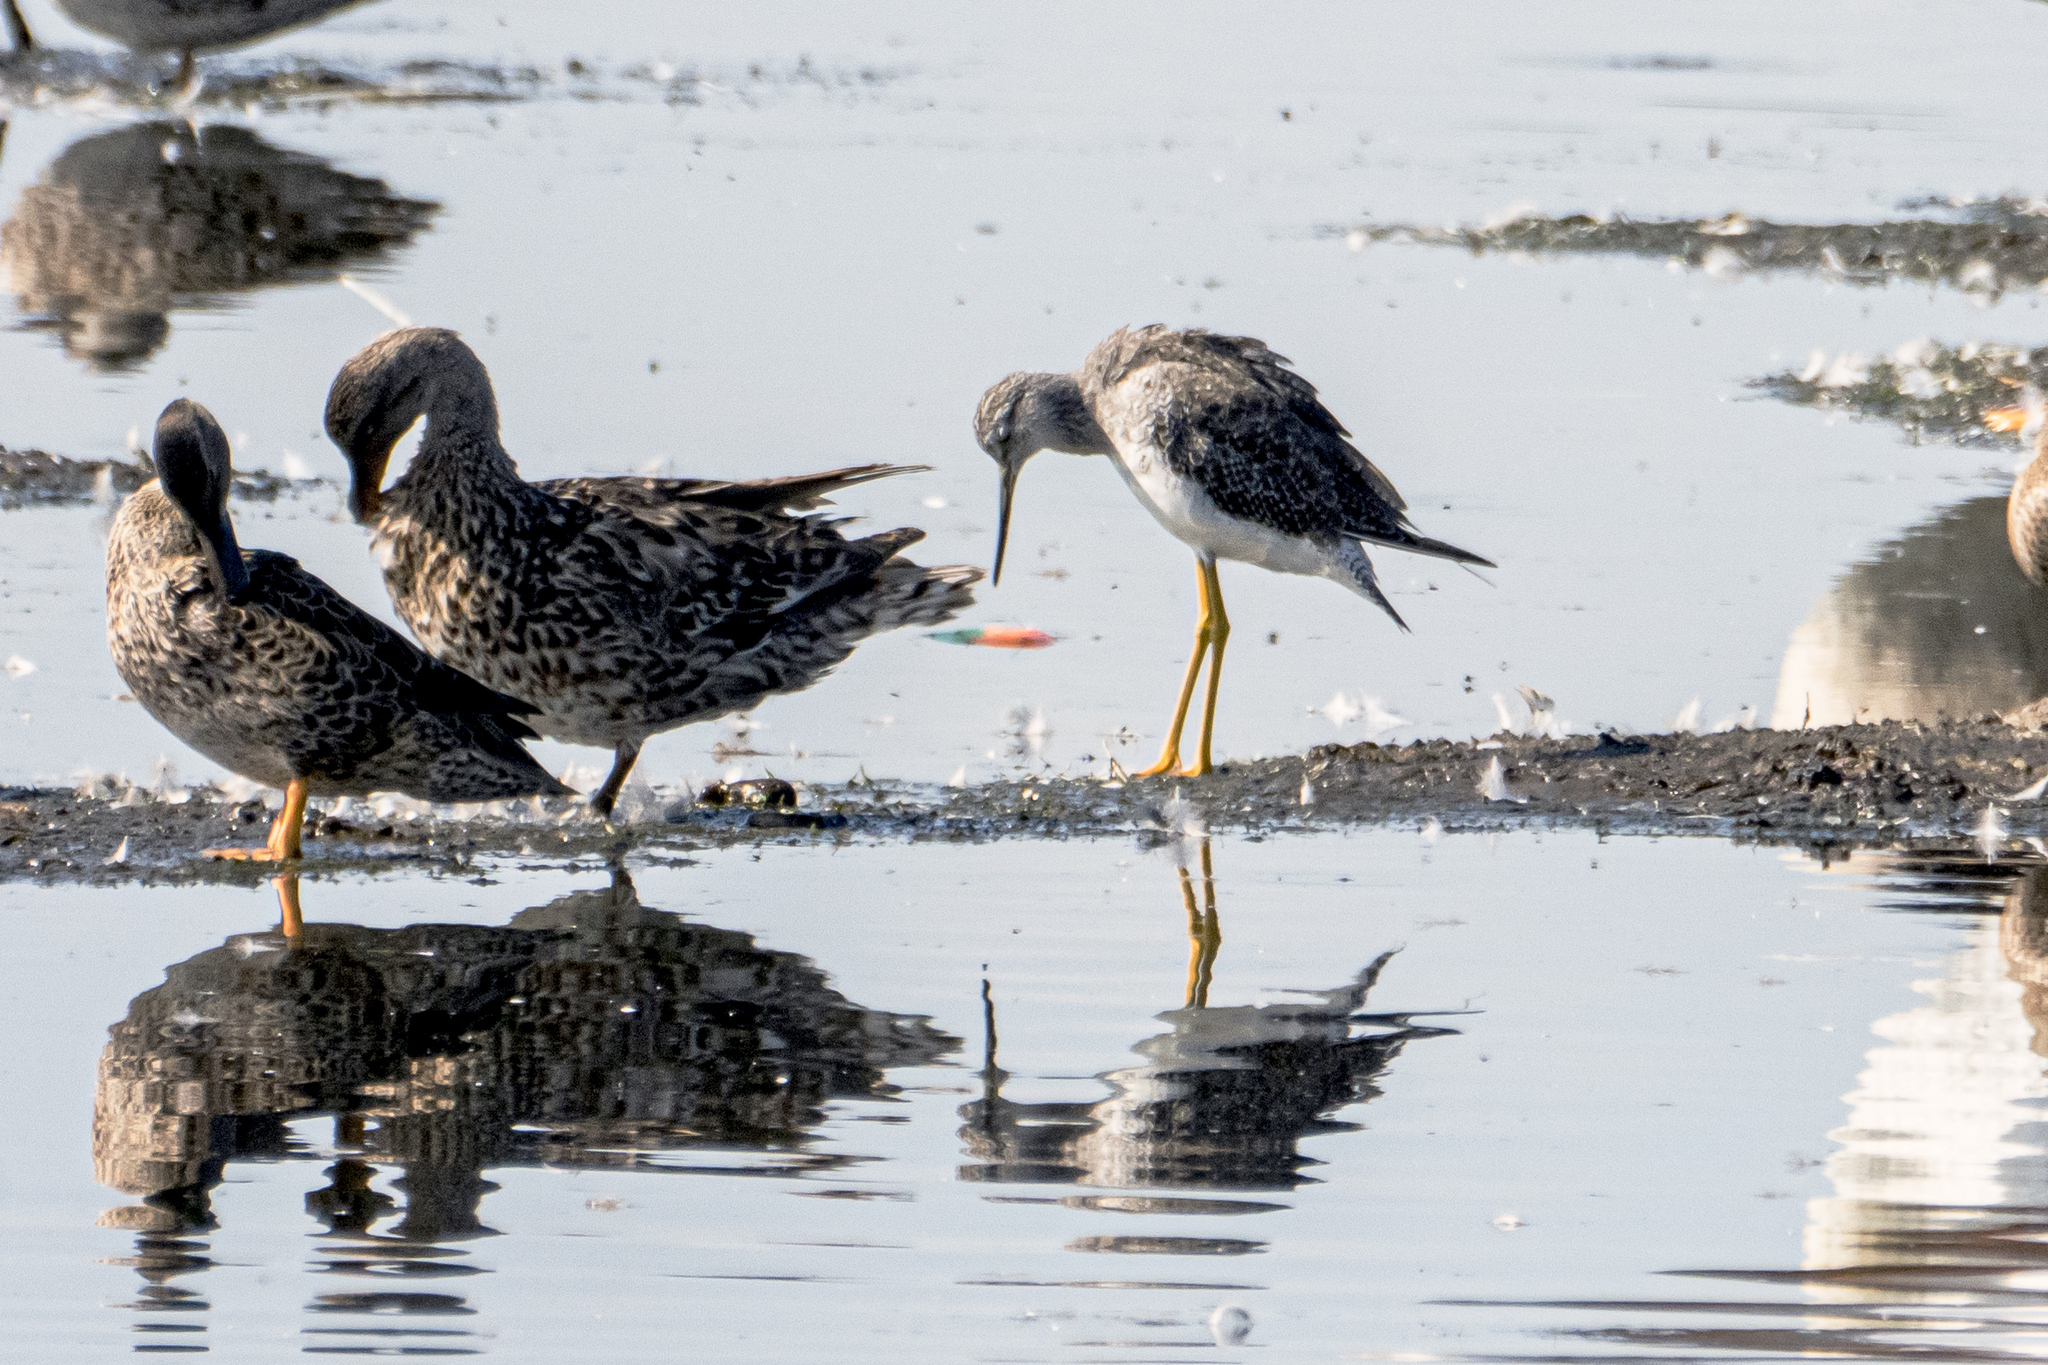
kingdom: Animalia
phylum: Chordata
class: Aves
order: Charadriiformes
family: Scolopacidae
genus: Tringa
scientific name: Tringa melanoleuca
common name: Greater yellowlegs
